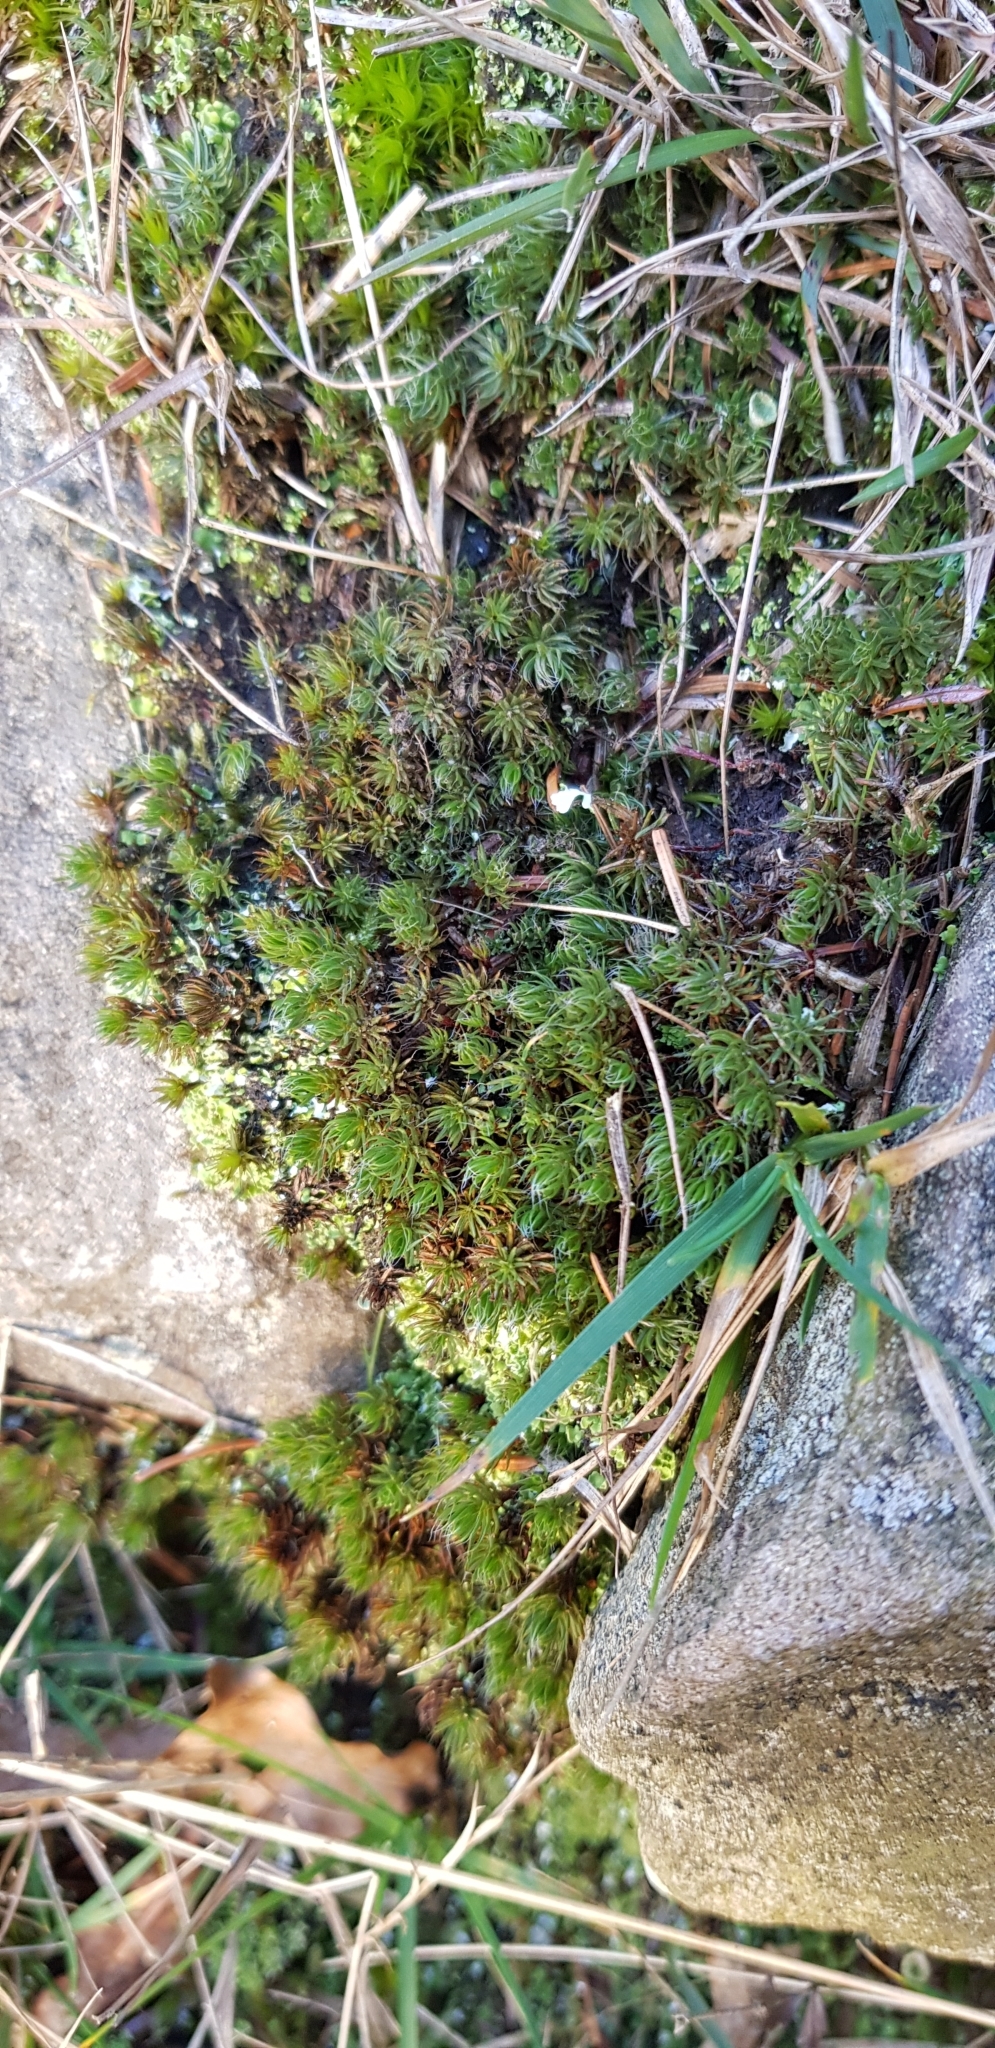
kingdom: Plantae
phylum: Bryophyta
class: Polytrichopsida
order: Polytrichales
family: Polytrichaceae
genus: Polytrichum
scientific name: Polytrichum piliferum
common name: Bristly haircap
